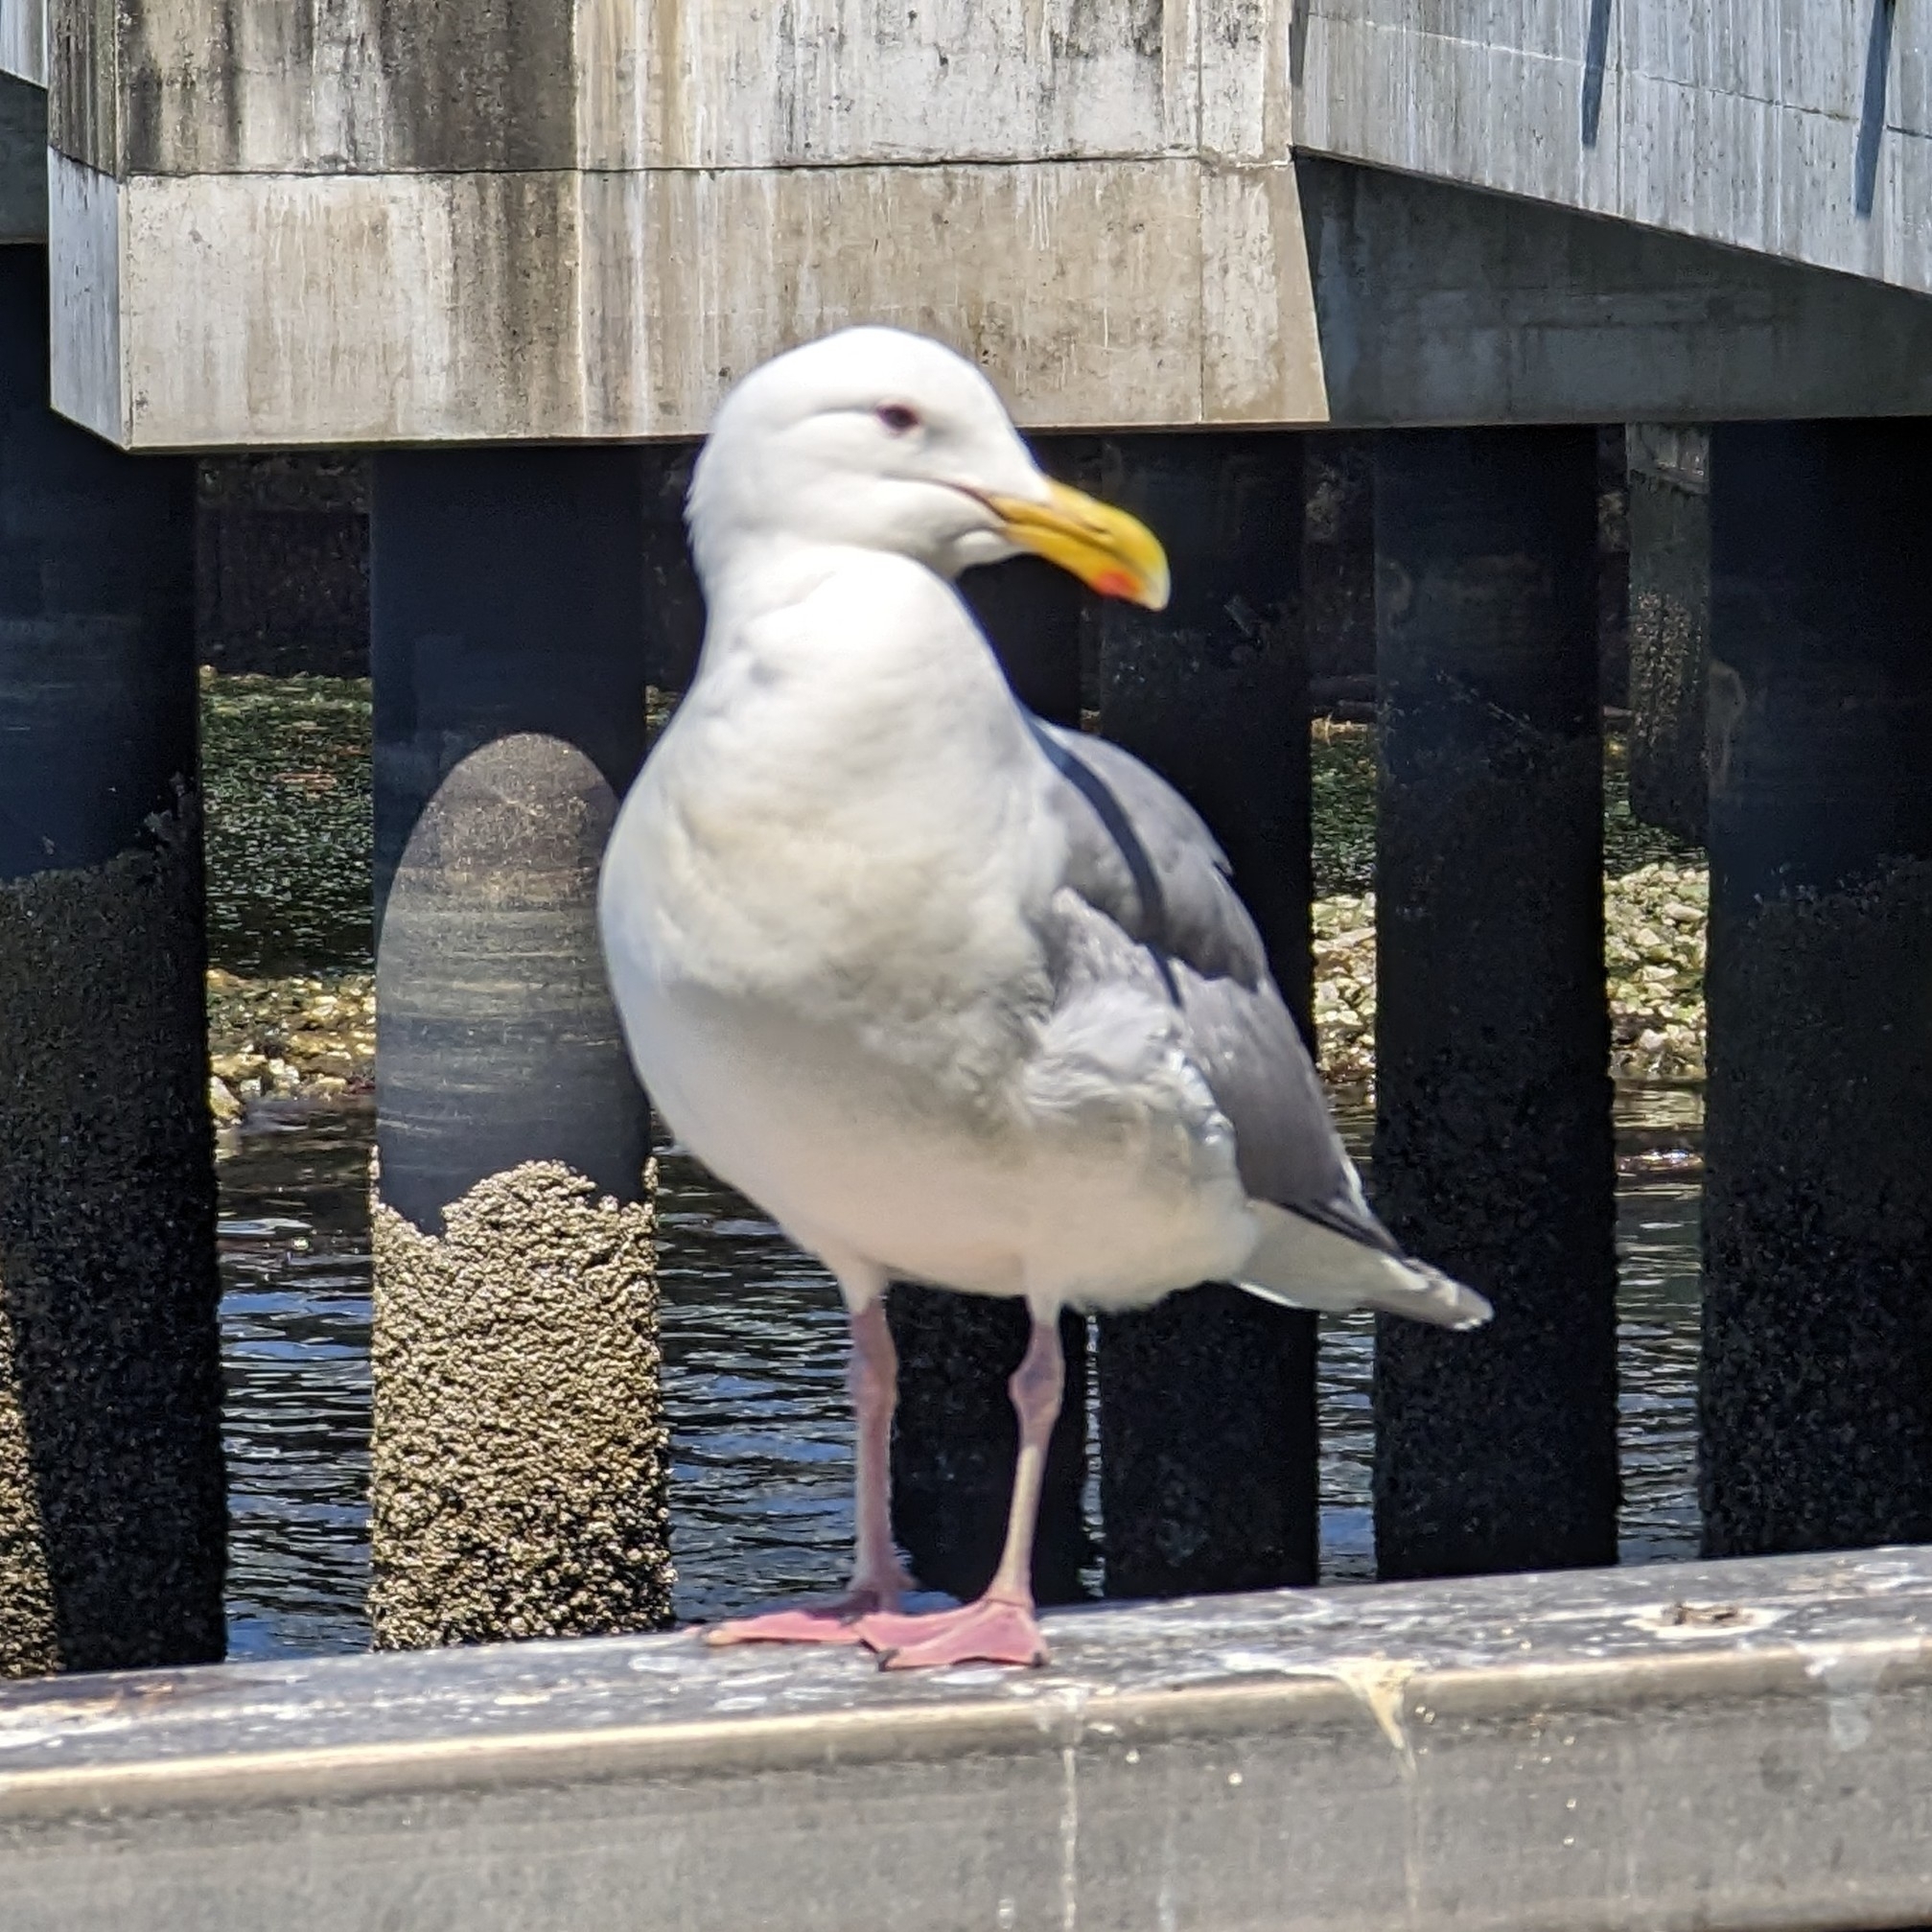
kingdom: Animalia
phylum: Chordata
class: Aves
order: Charadriiformes
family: Laridae
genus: Larus
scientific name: Larus
